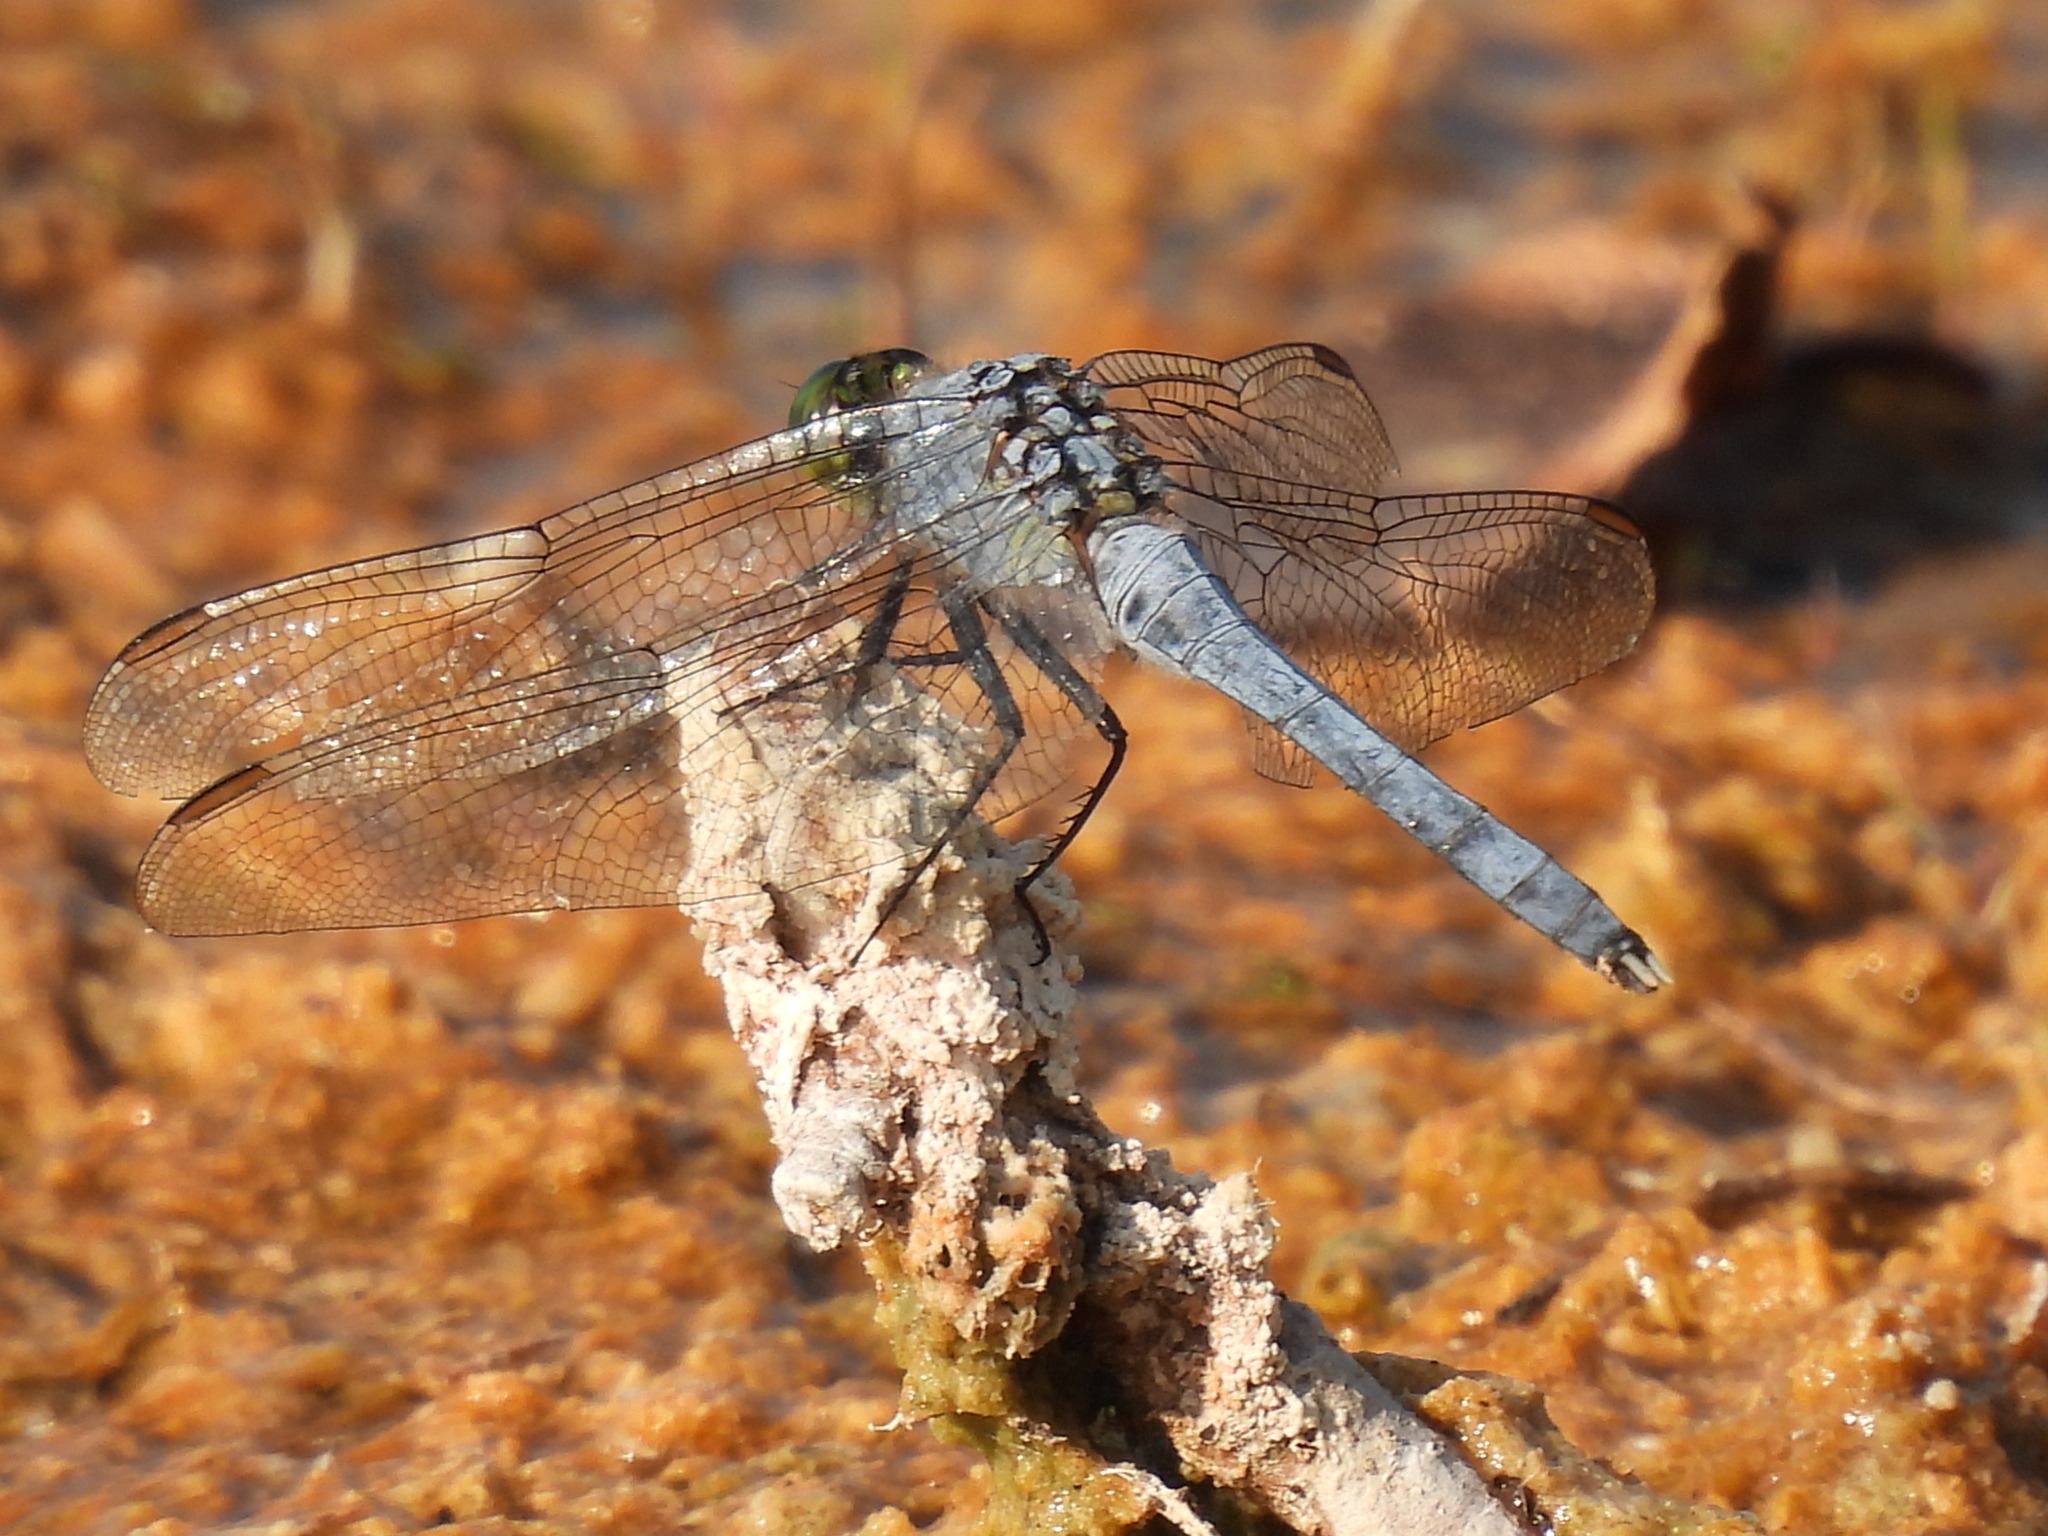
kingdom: Animalia
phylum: Arthropoda
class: Insecta
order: Odonata
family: Libellulidae
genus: Erythemis
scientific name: Erythemis simplicicollis
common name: Eastern pondhawk
